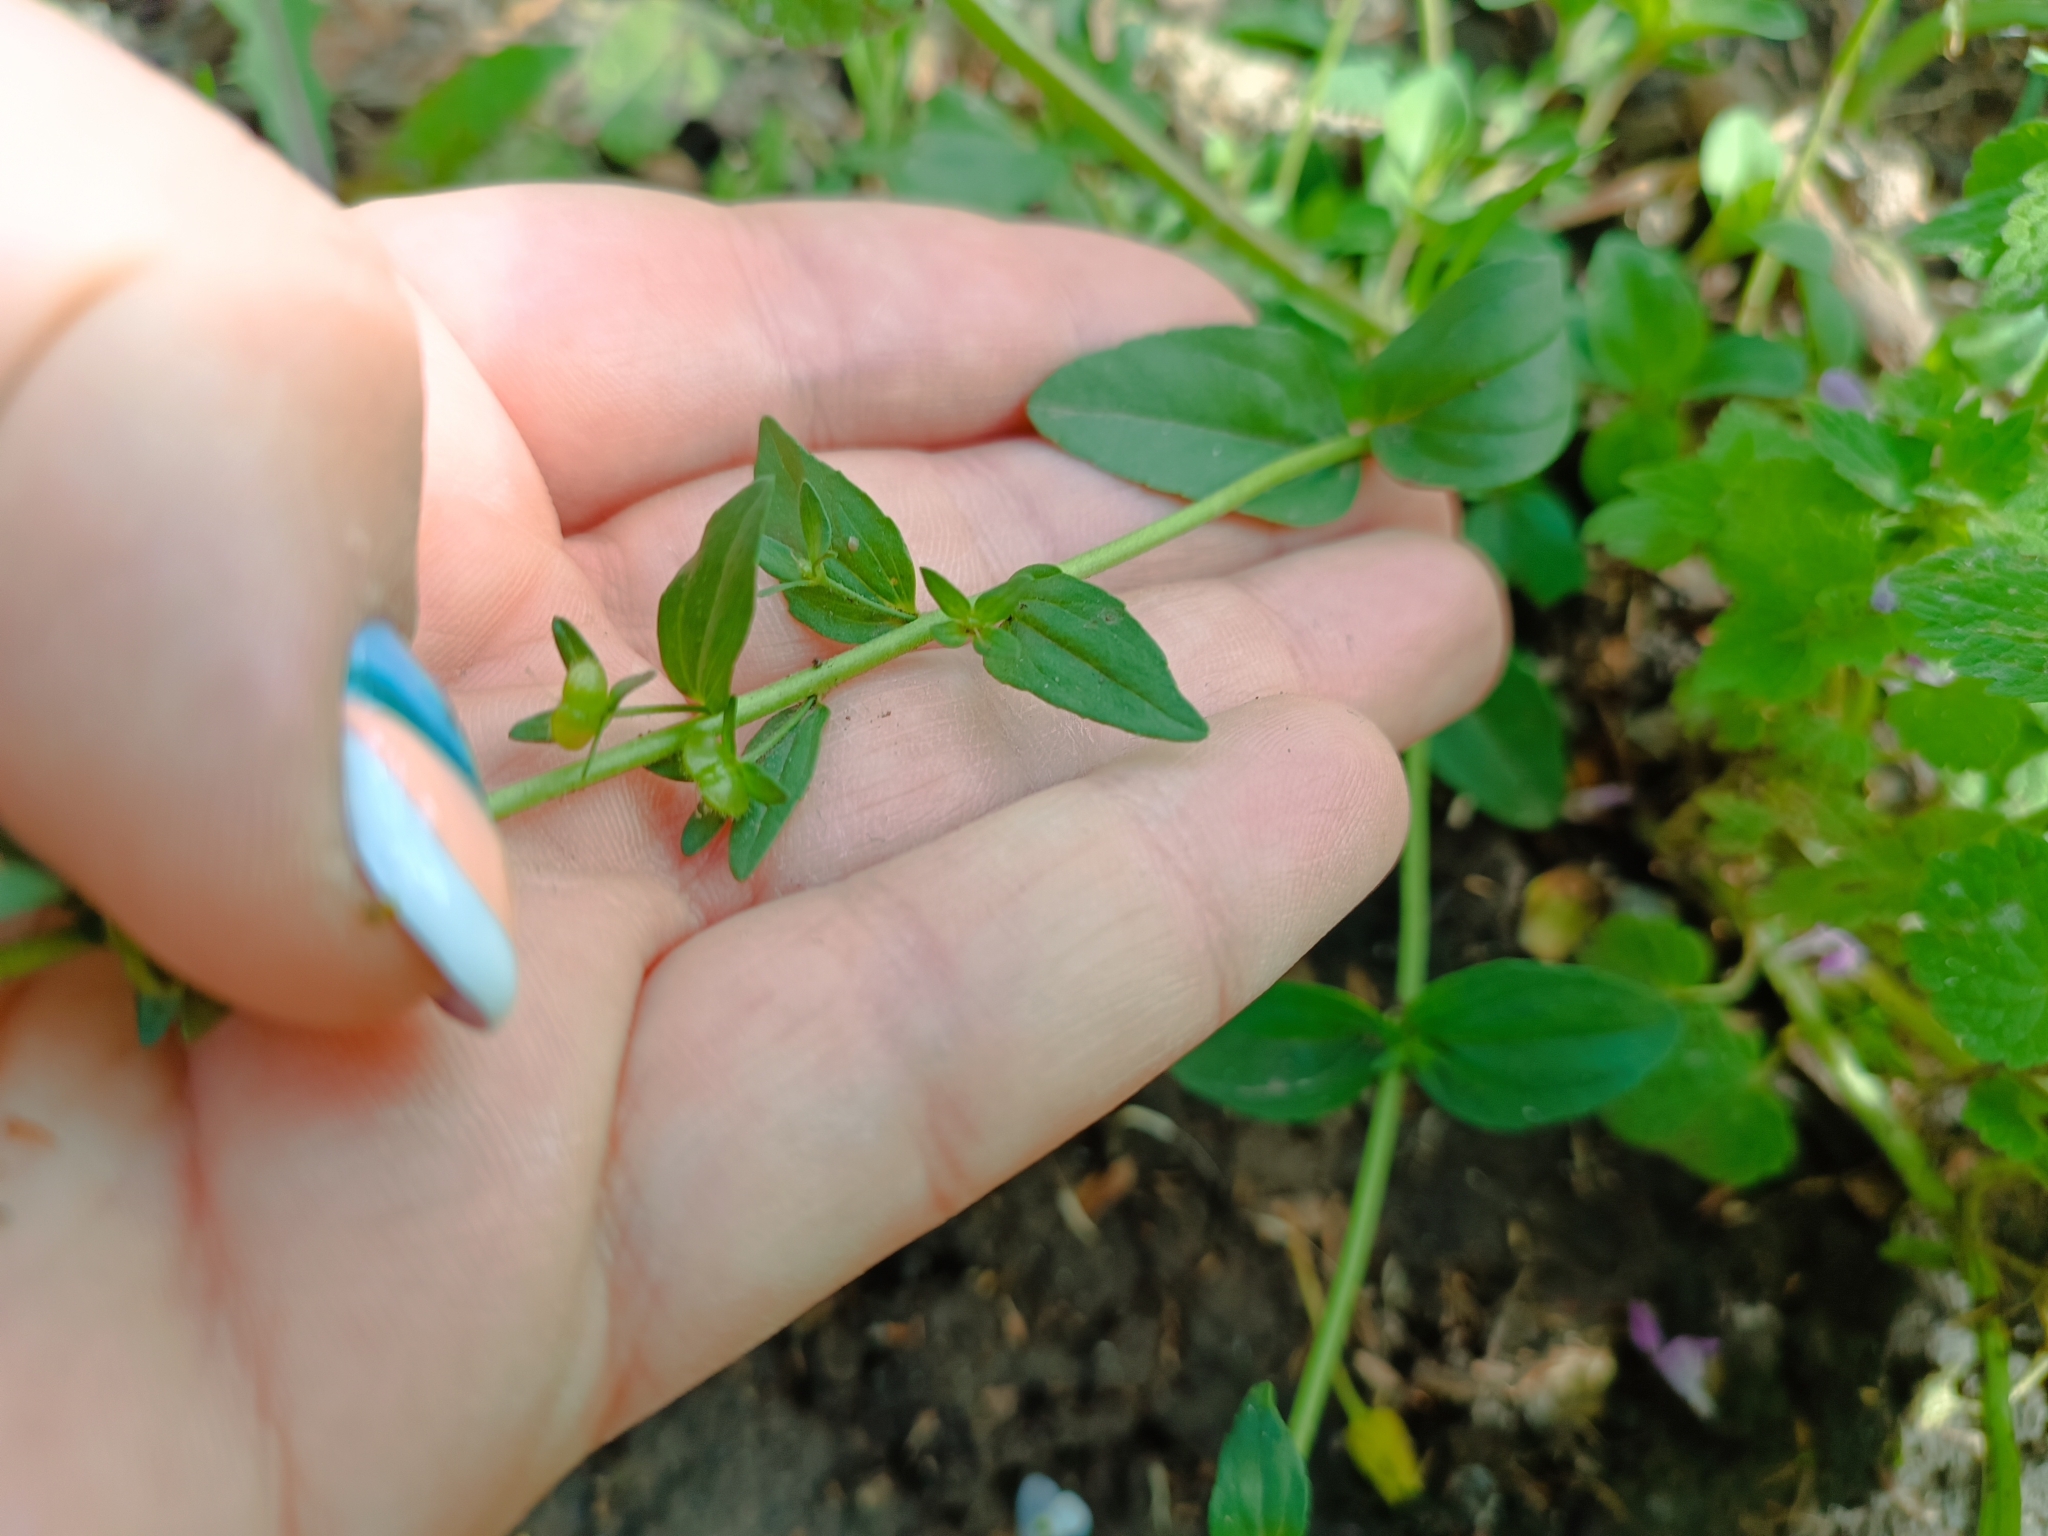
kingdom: Plantae
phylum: Tracheophyta
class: Magnoliopsida
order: Lamiales
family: Plantaginaceae
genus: Veronica
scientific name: Veronica serpyllifolia
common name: Thyme-leaved speedwell
